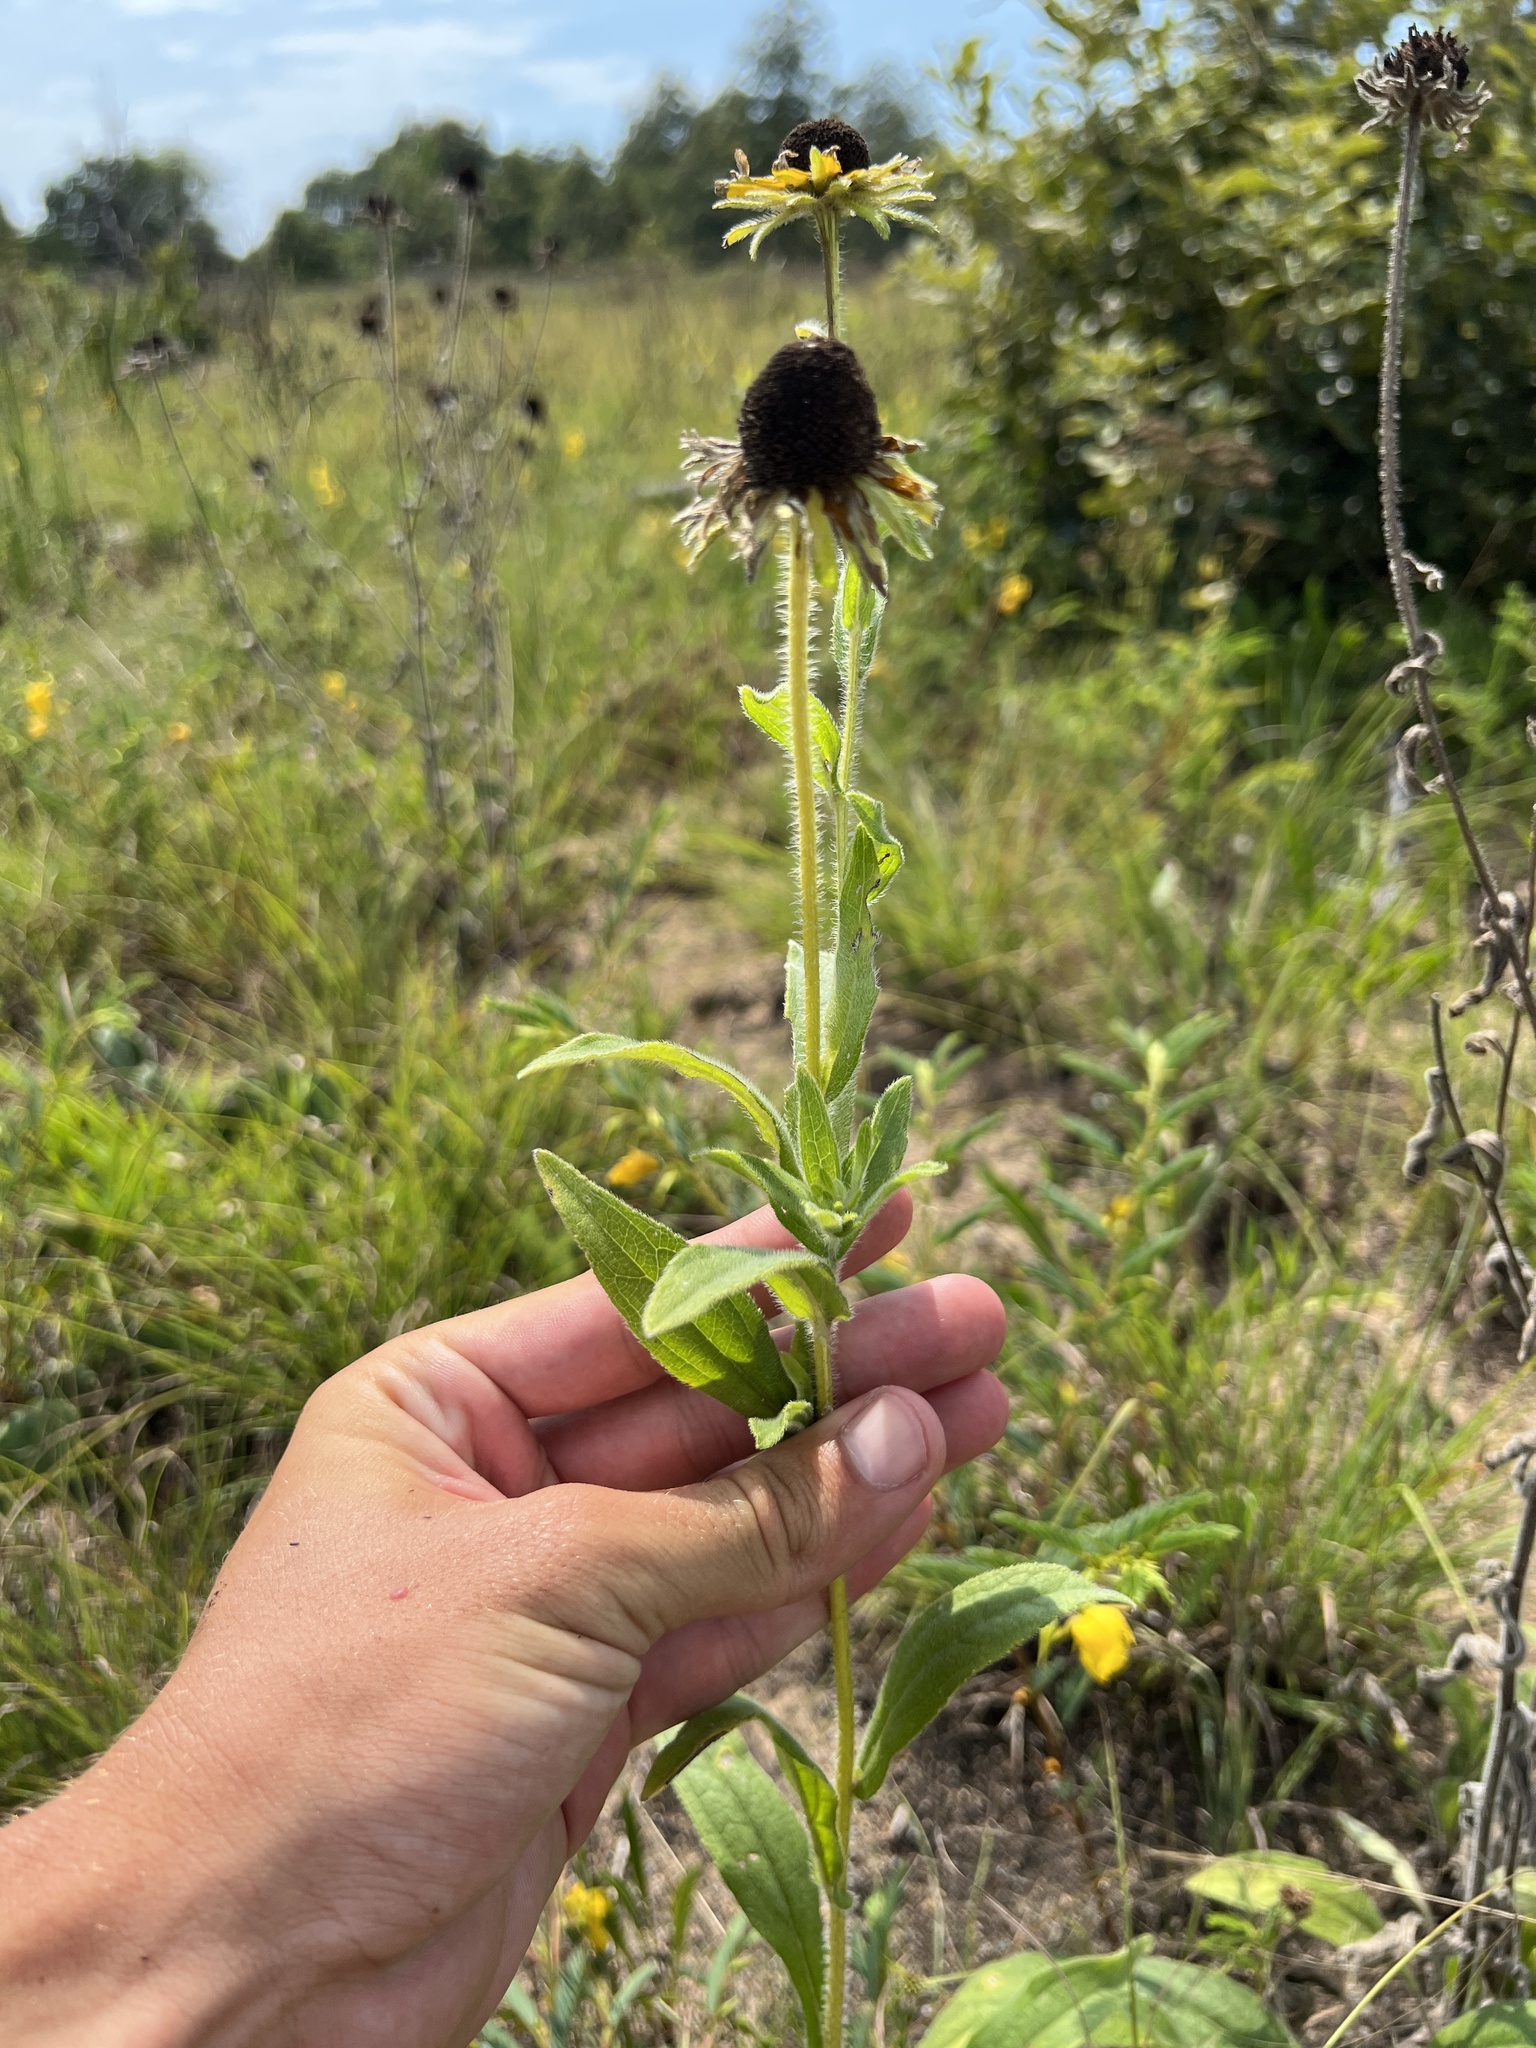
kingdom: Plantae
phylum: Tracheophyta
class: Magnoliopsida
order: Asterales
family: Asteraceae
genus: Rudbeckia
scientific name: Rudbeckia hirta
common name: Black-eyed-susan
